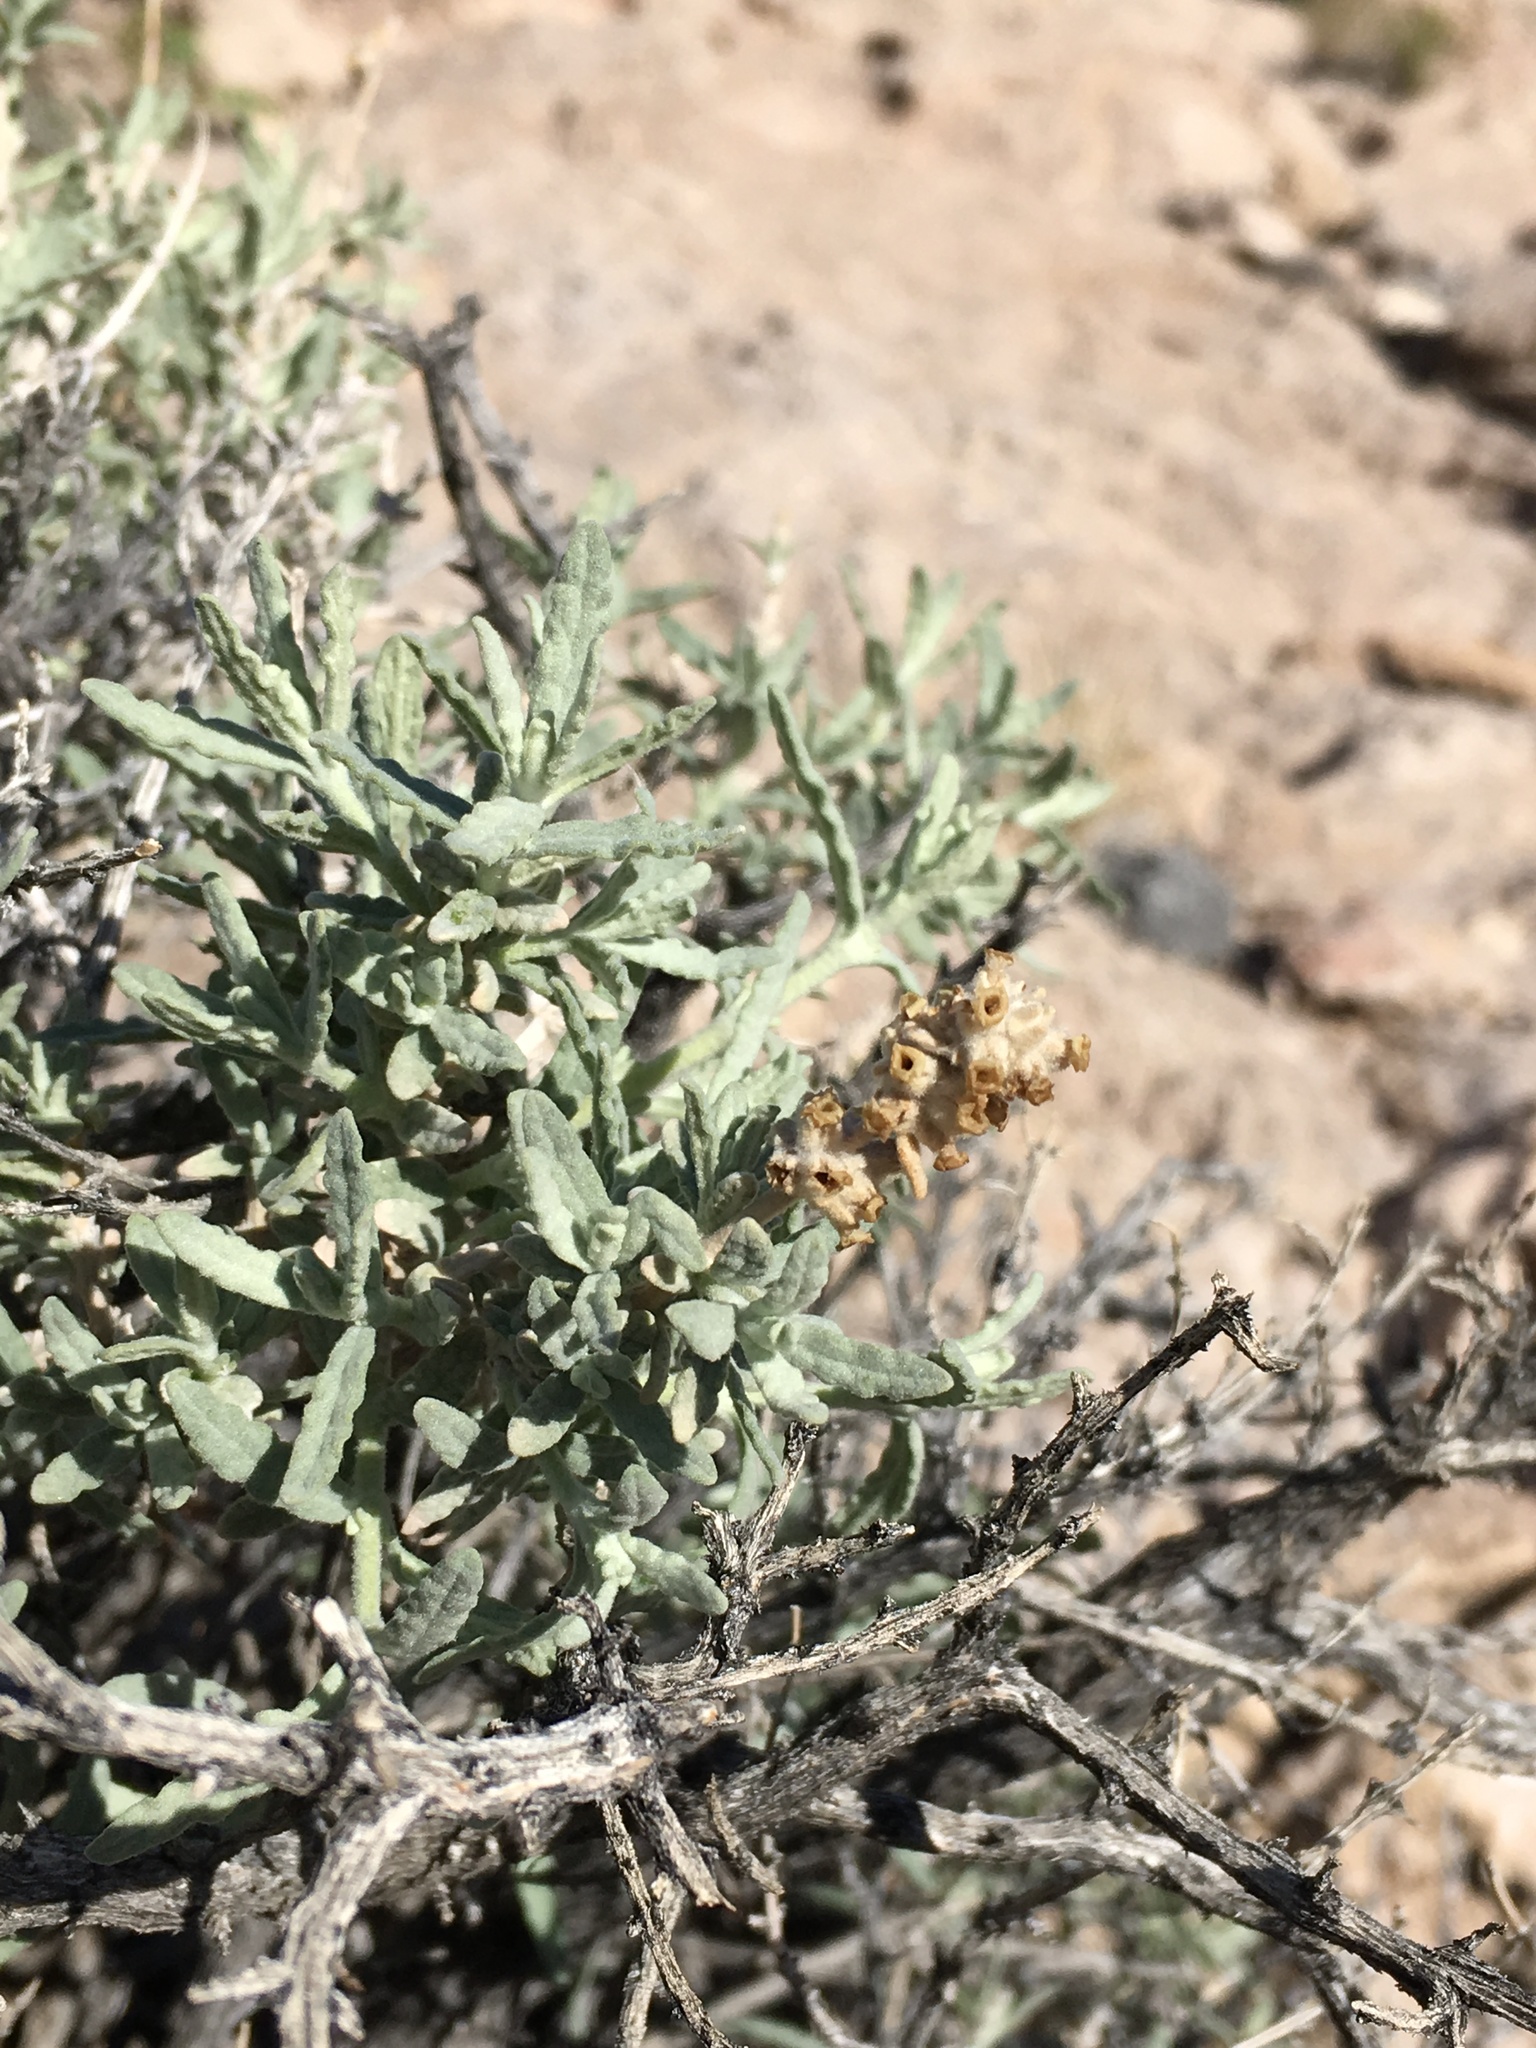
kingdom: Plantae
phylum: Tracheophyta
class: Magnoliopsida
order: Lamiales
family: Scrophulariaceae
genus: Buddleja
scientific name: Buddleja utahensis
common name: Utah butterfly-bush
